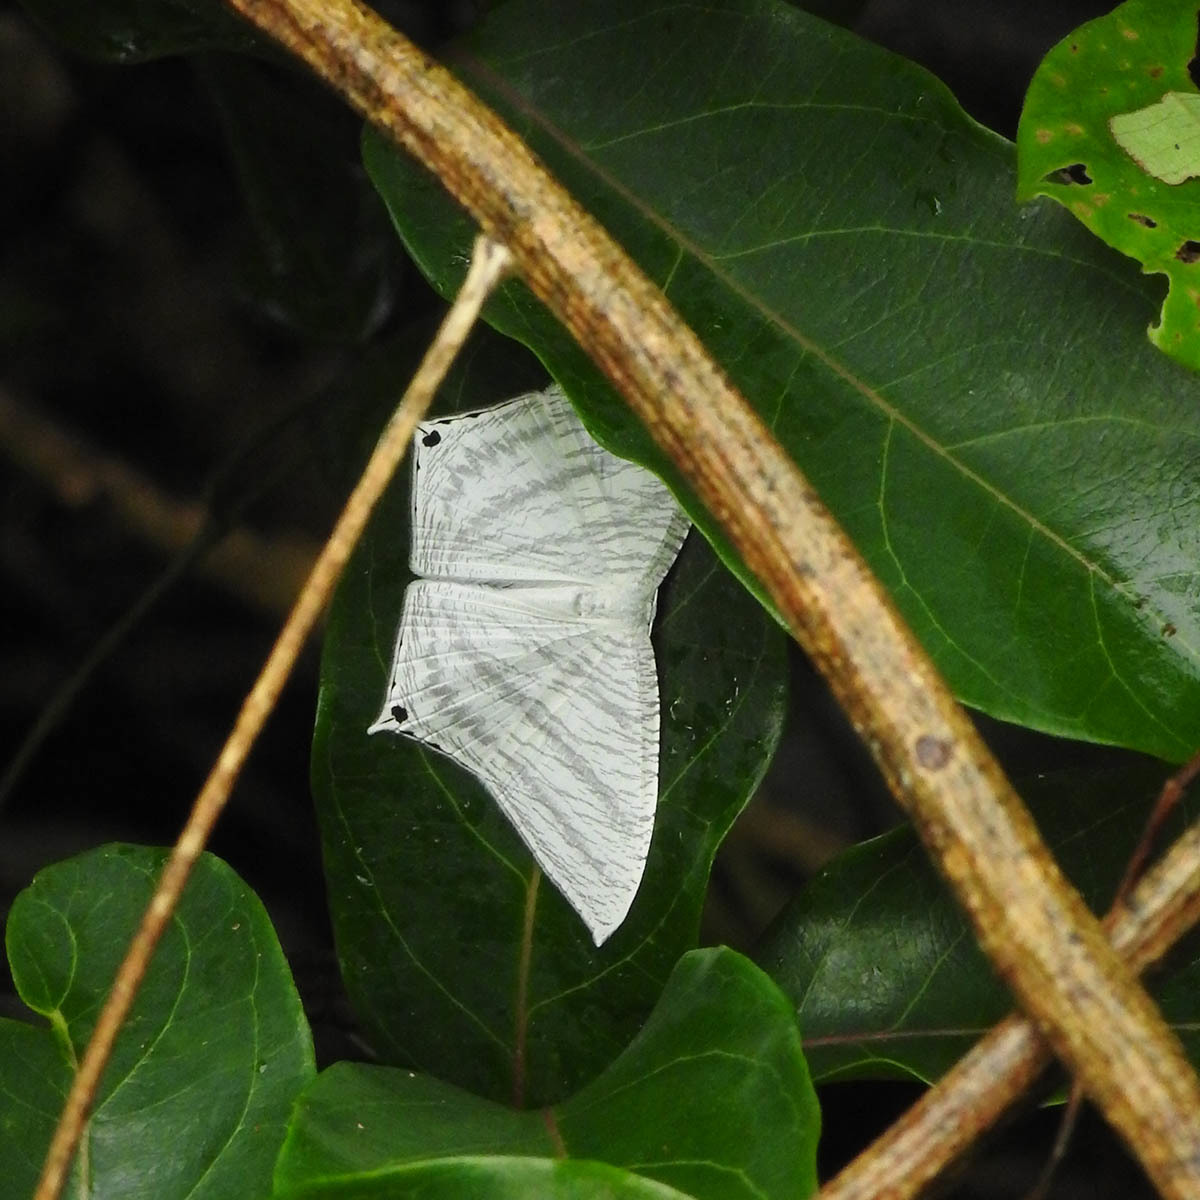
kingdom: Animalia
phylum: Arthropoda
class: Insecta
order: Lepidoptera
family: Uraniidae
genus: Micronia
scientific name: Micronia aculeata
